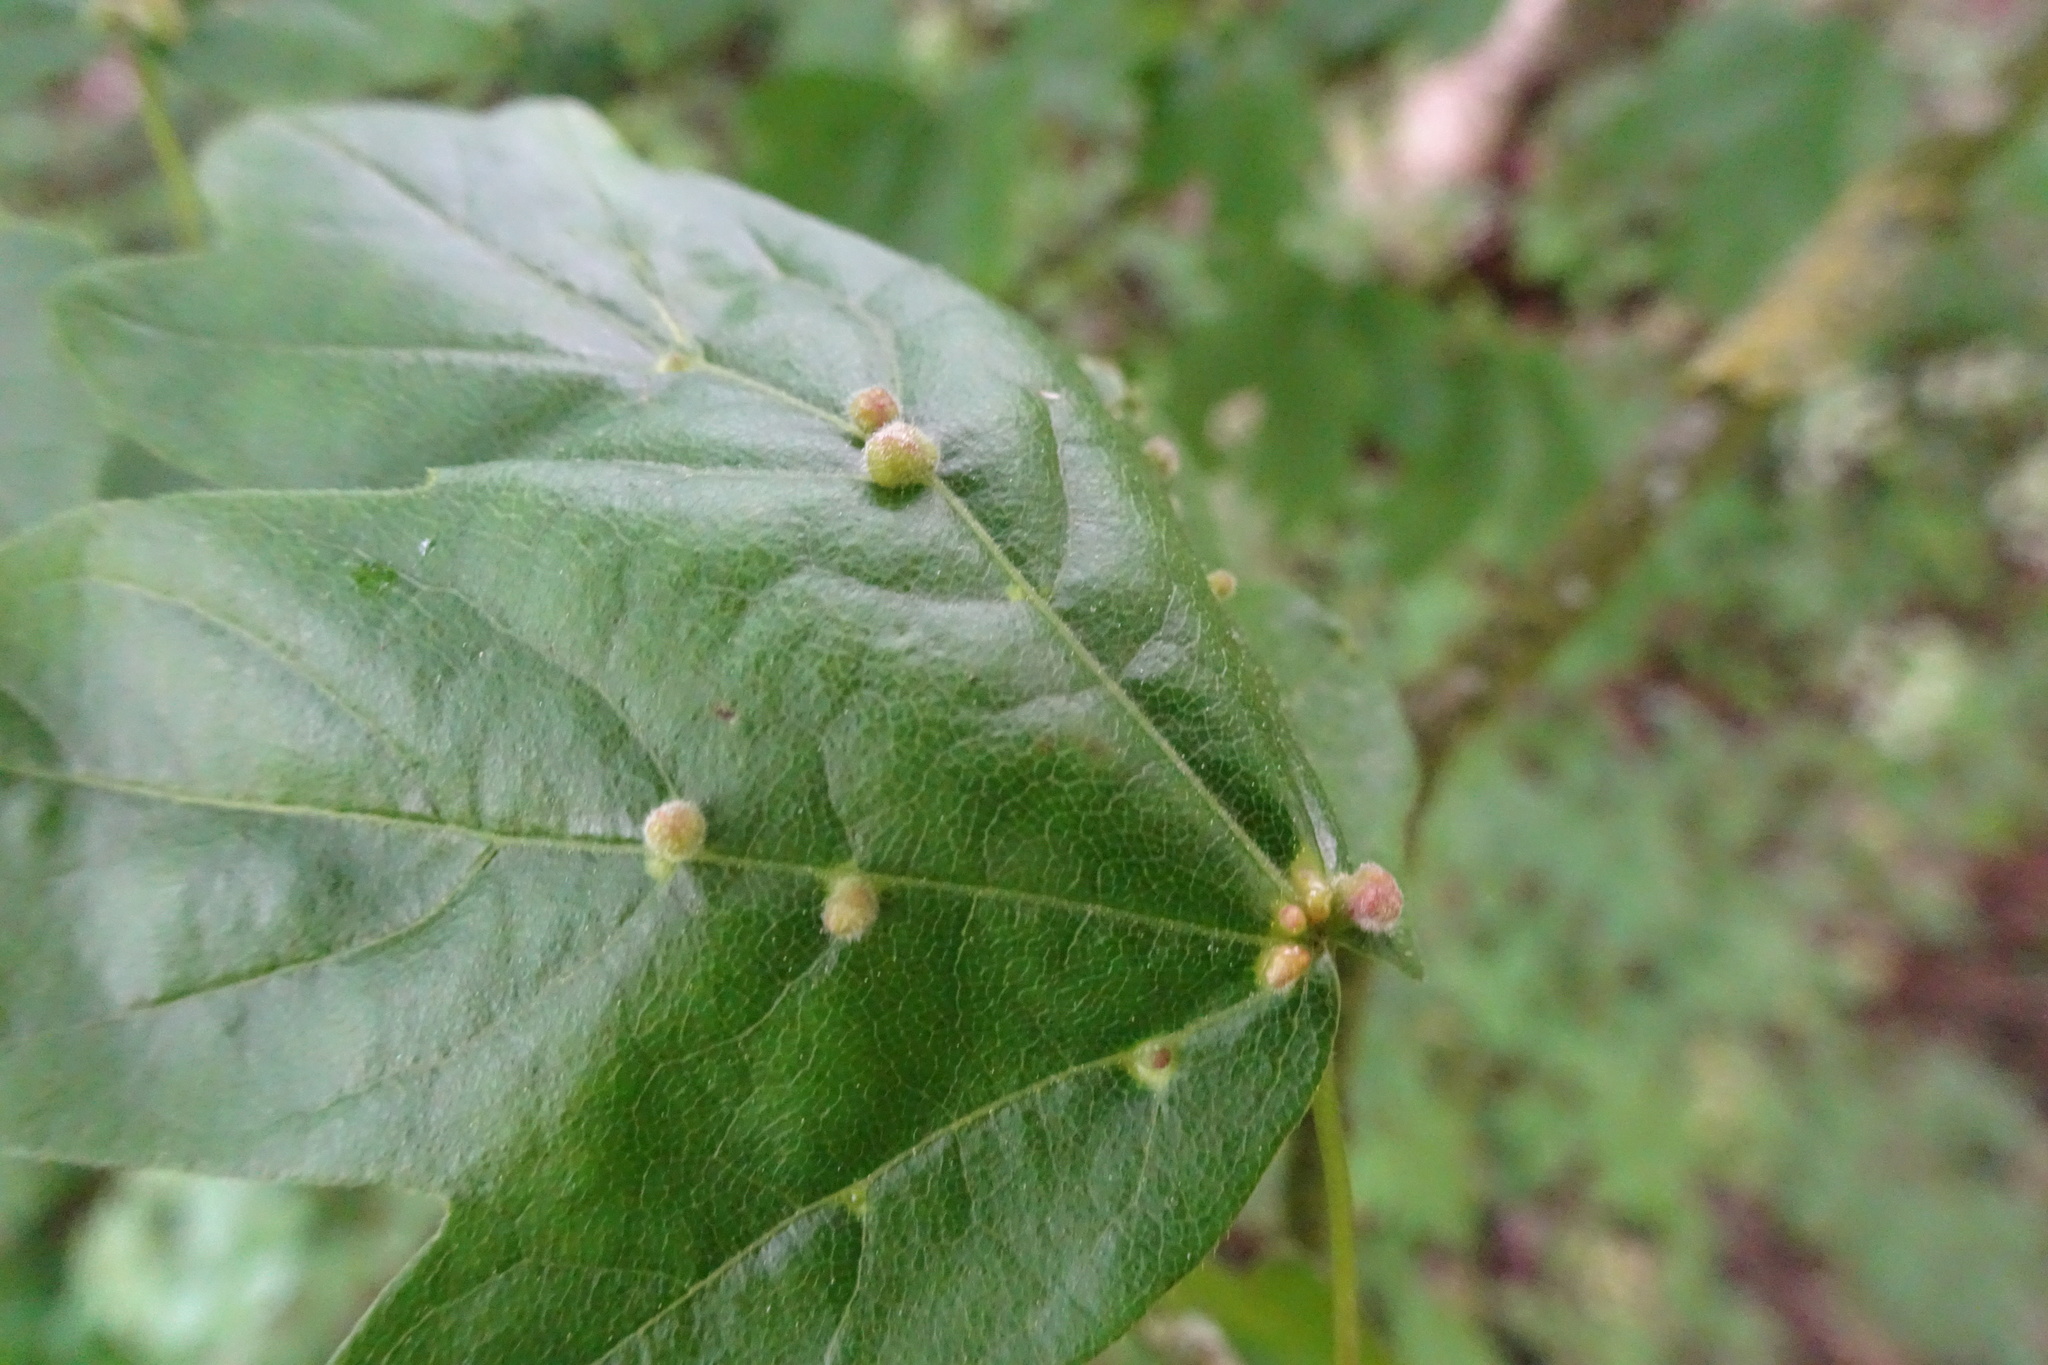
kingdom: Animalia
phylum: Arthropoda
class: Arachnida
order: Trombidiformes
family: Eriophyidae
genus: Aceria
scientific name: Aceria macrochelus
